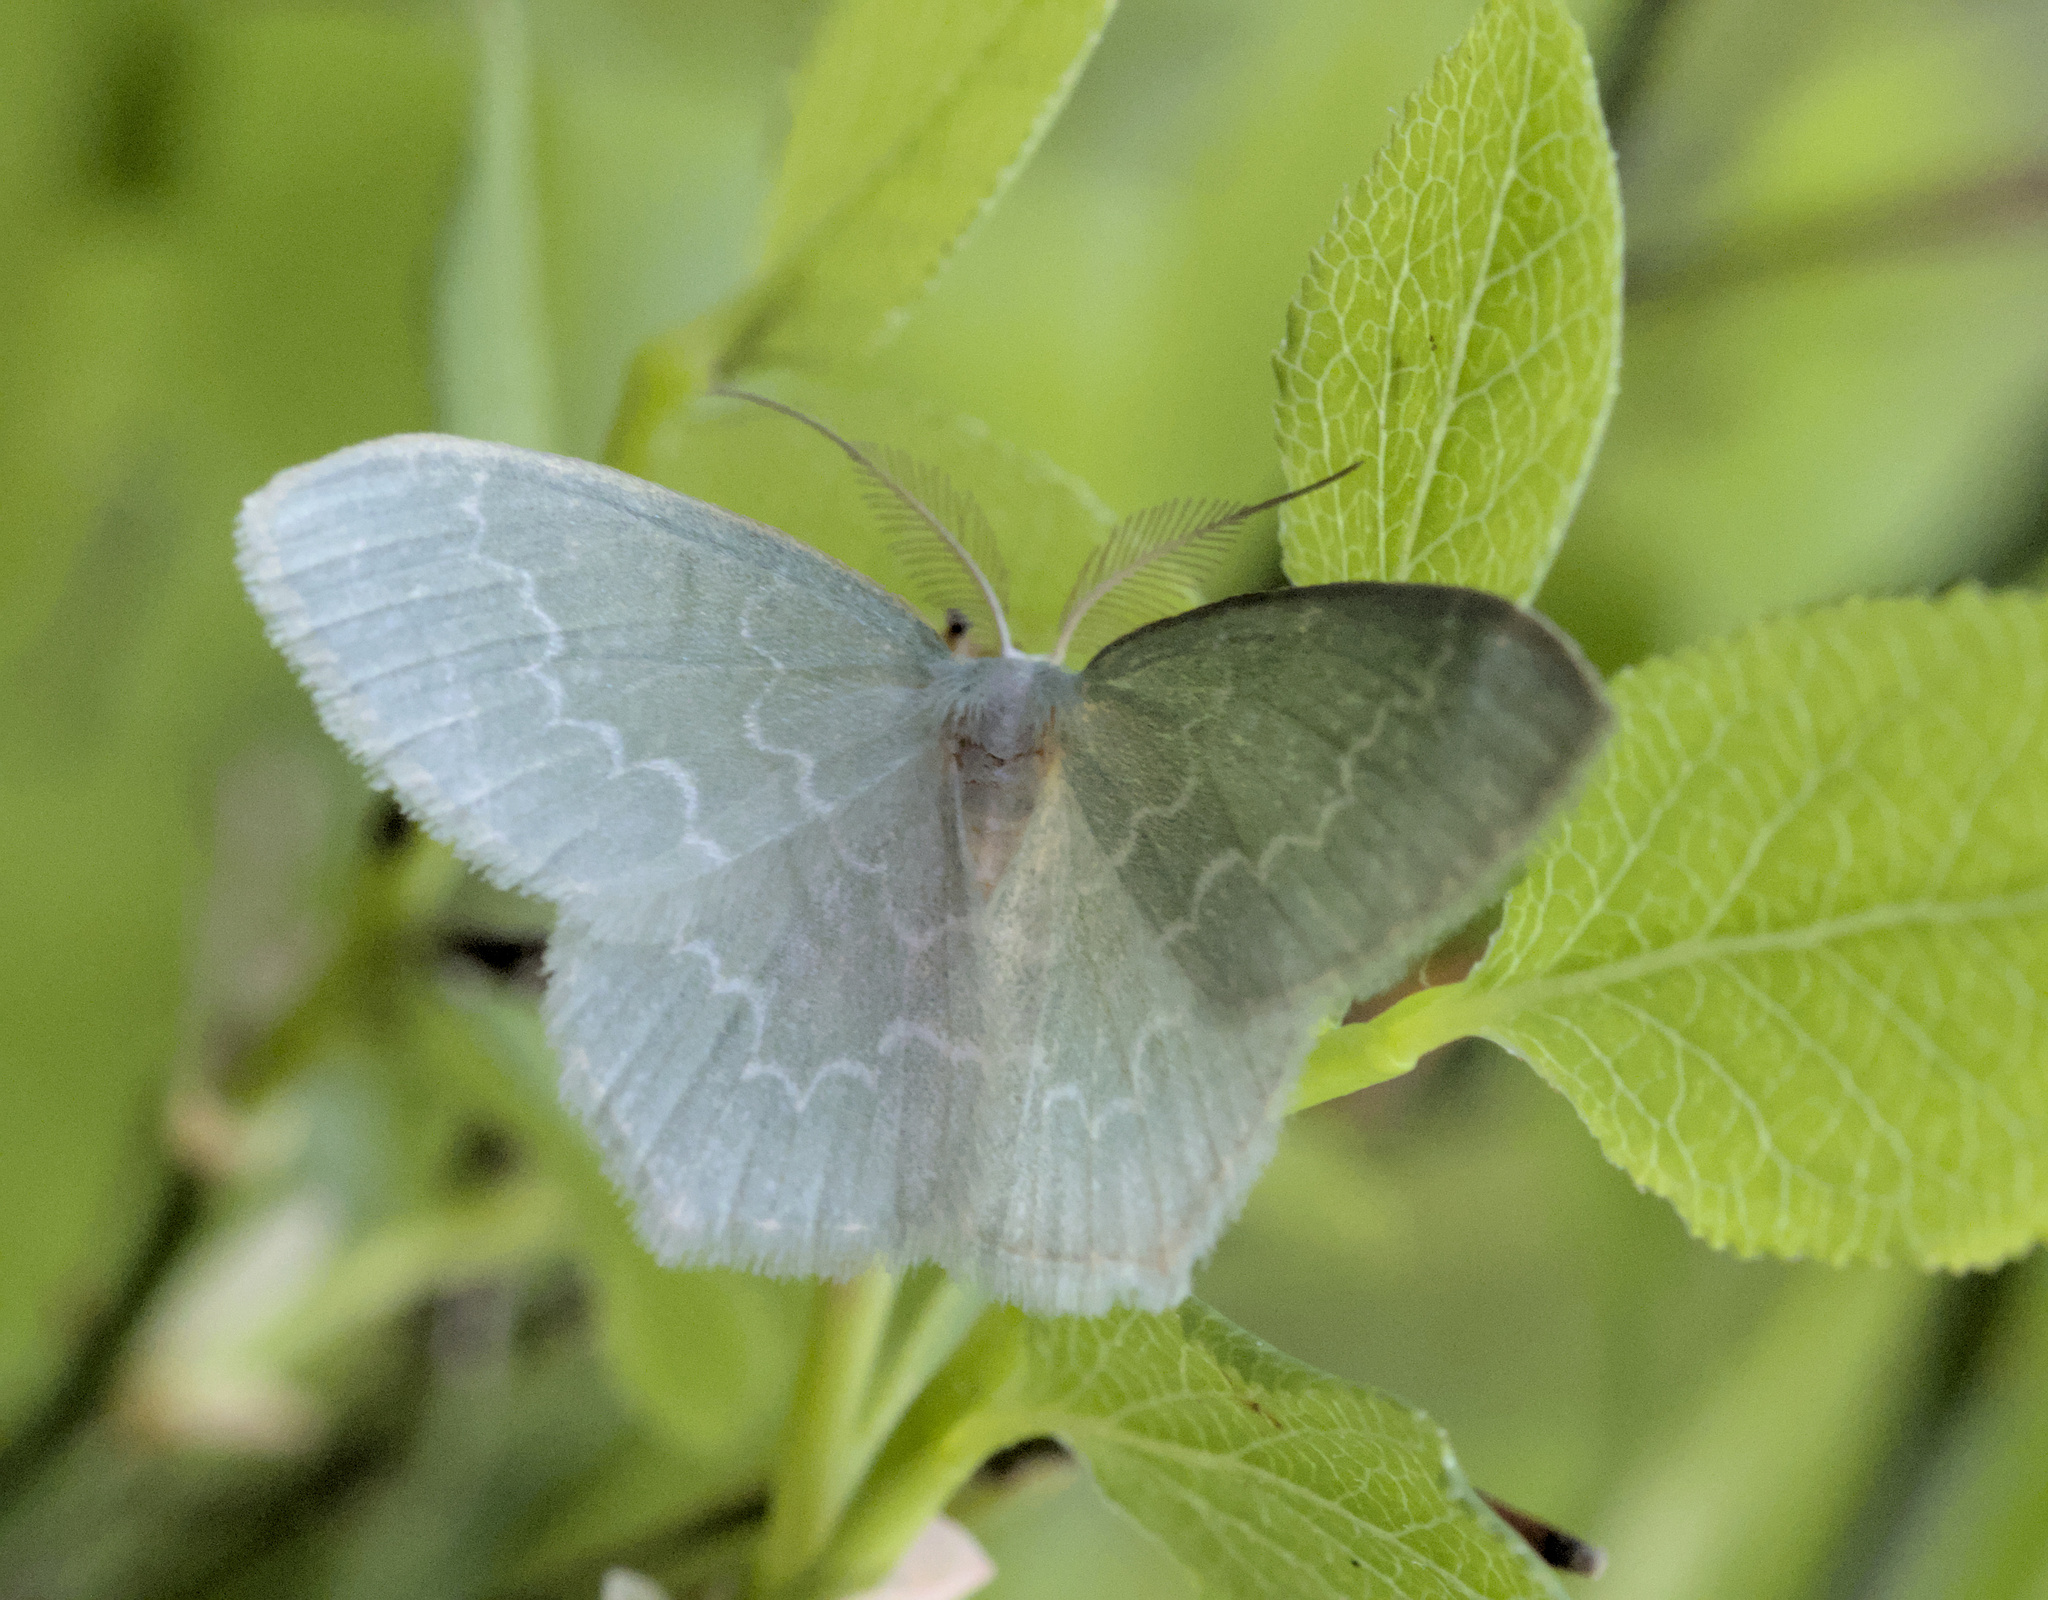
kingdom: Animalia
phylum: Arthropoda
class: Insecta
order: Lepidoptera
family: Geometridae
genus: Jodis
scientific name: Jodis putata
